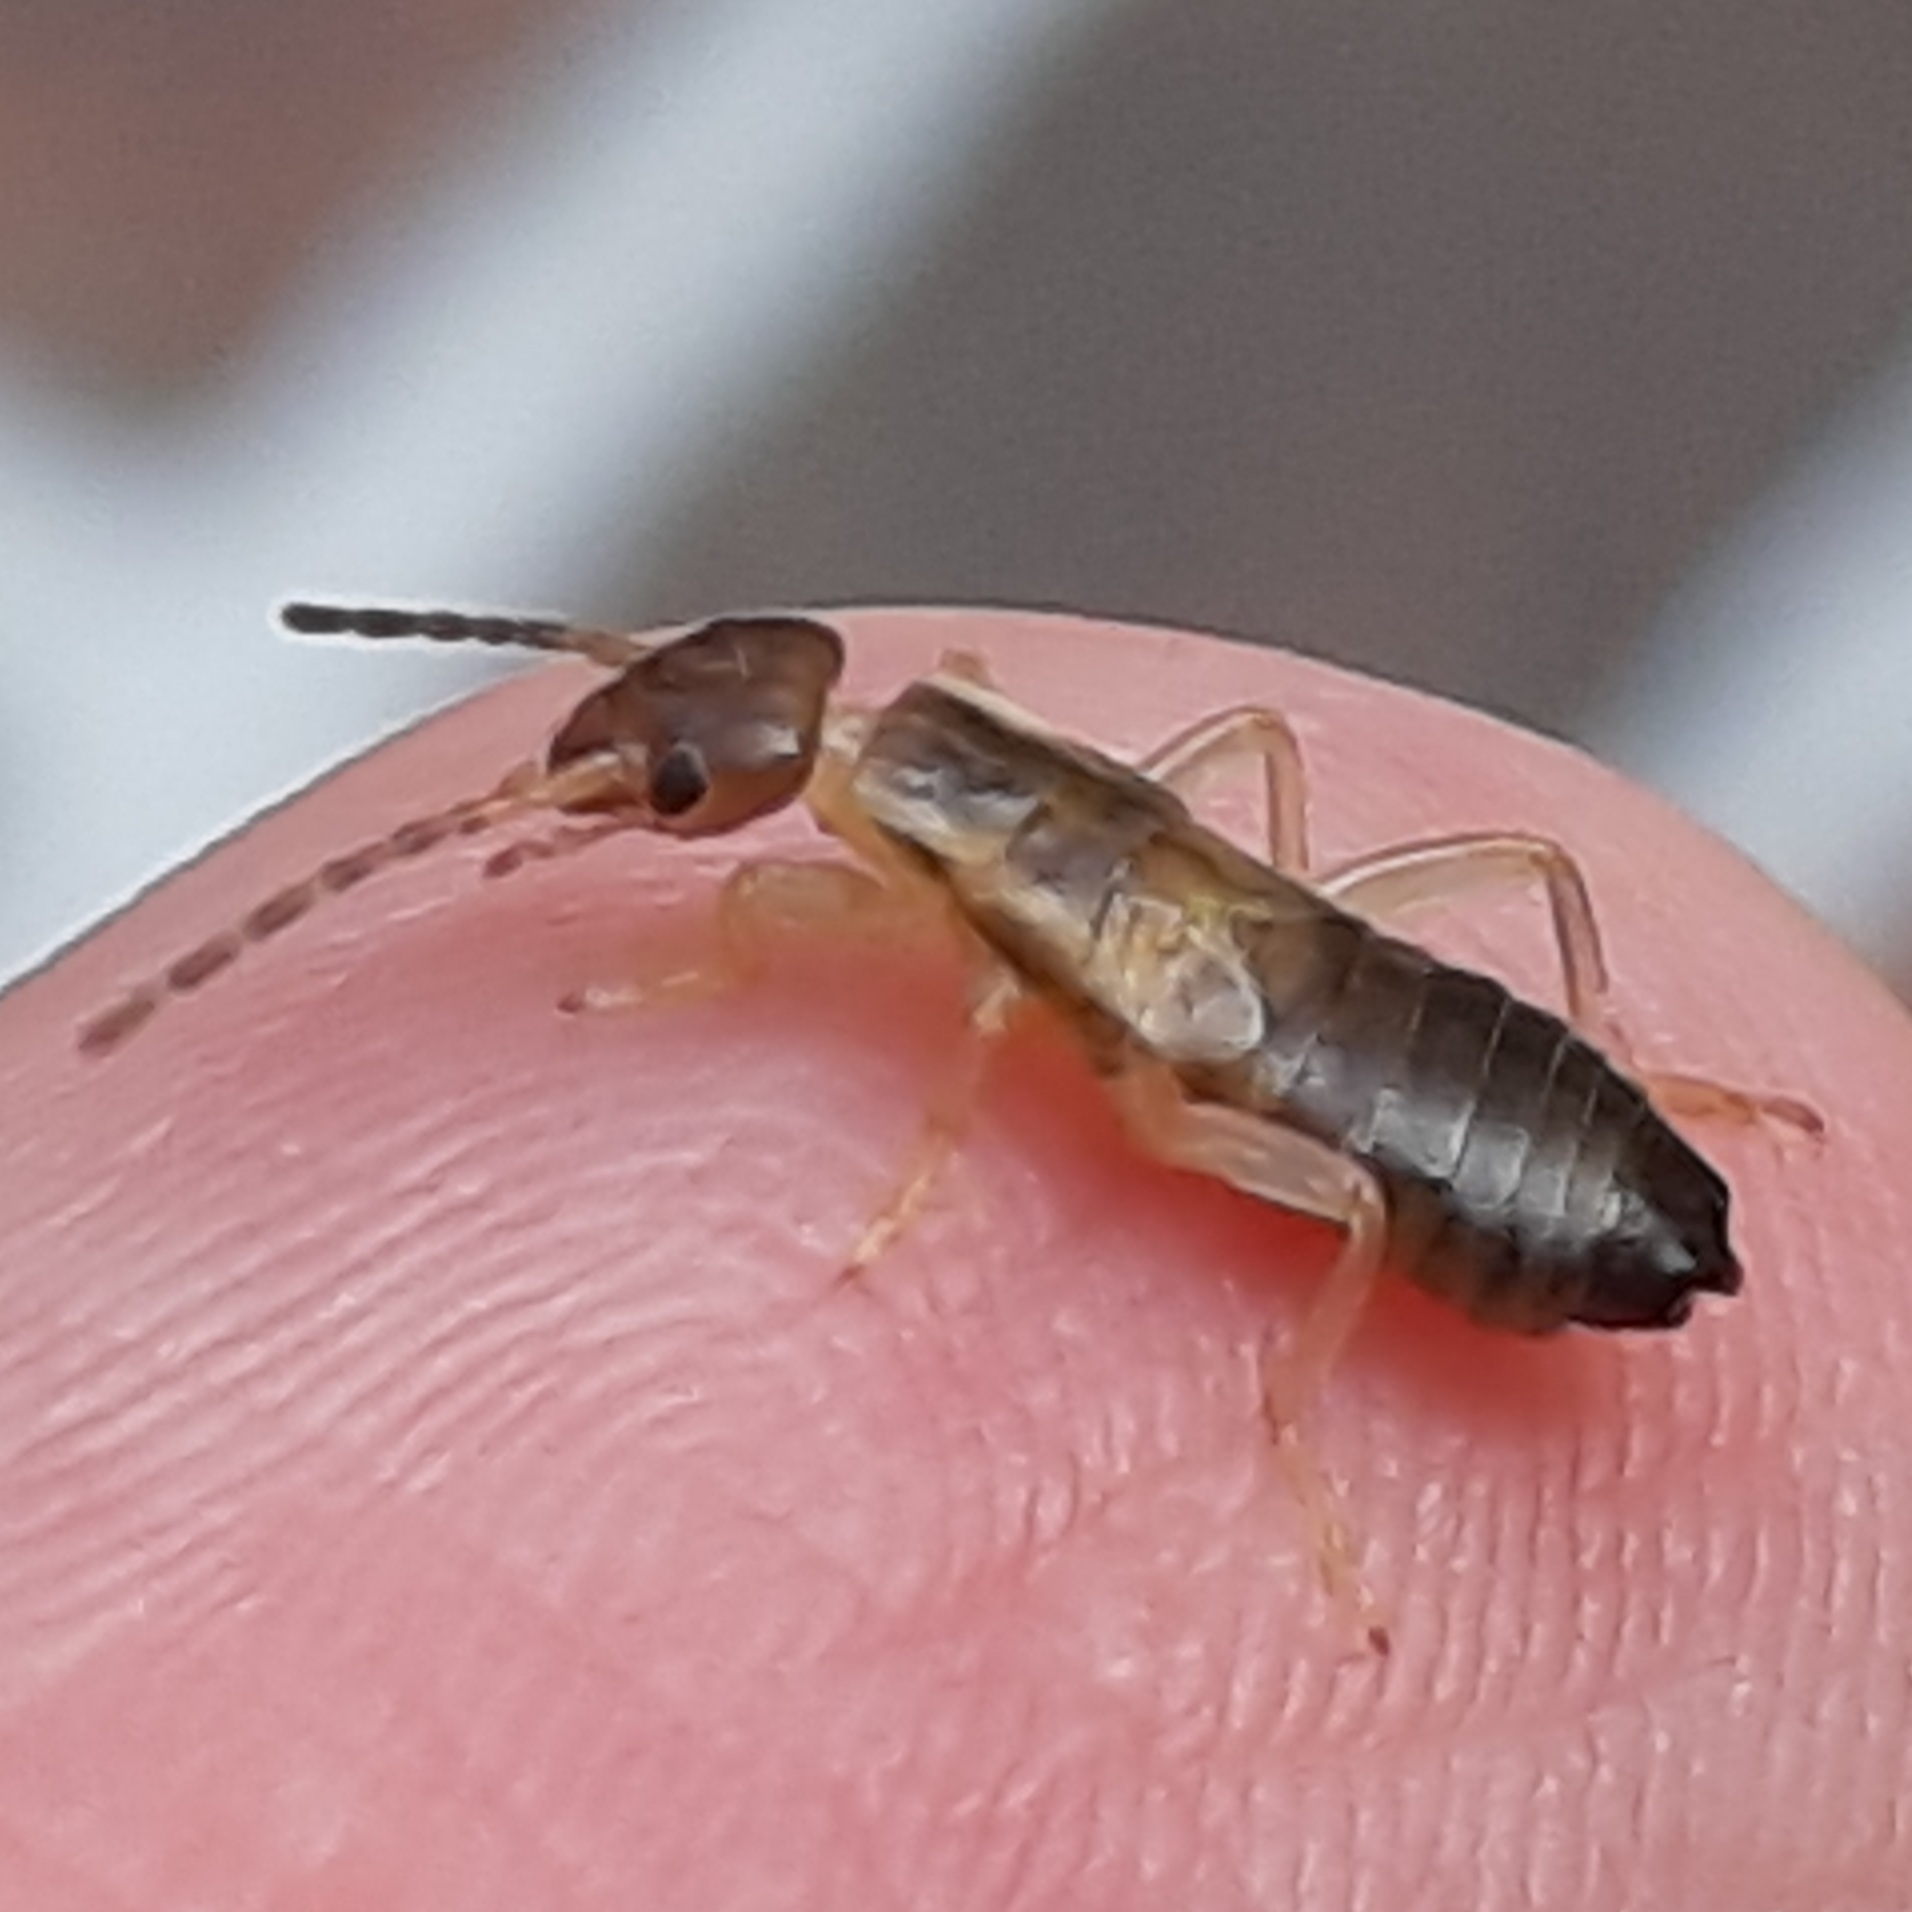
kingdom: Animalia
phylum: Arthropoda
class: Insecta
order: Dermaptera
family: Forficulidae
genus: Forficula
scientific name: Forficula
